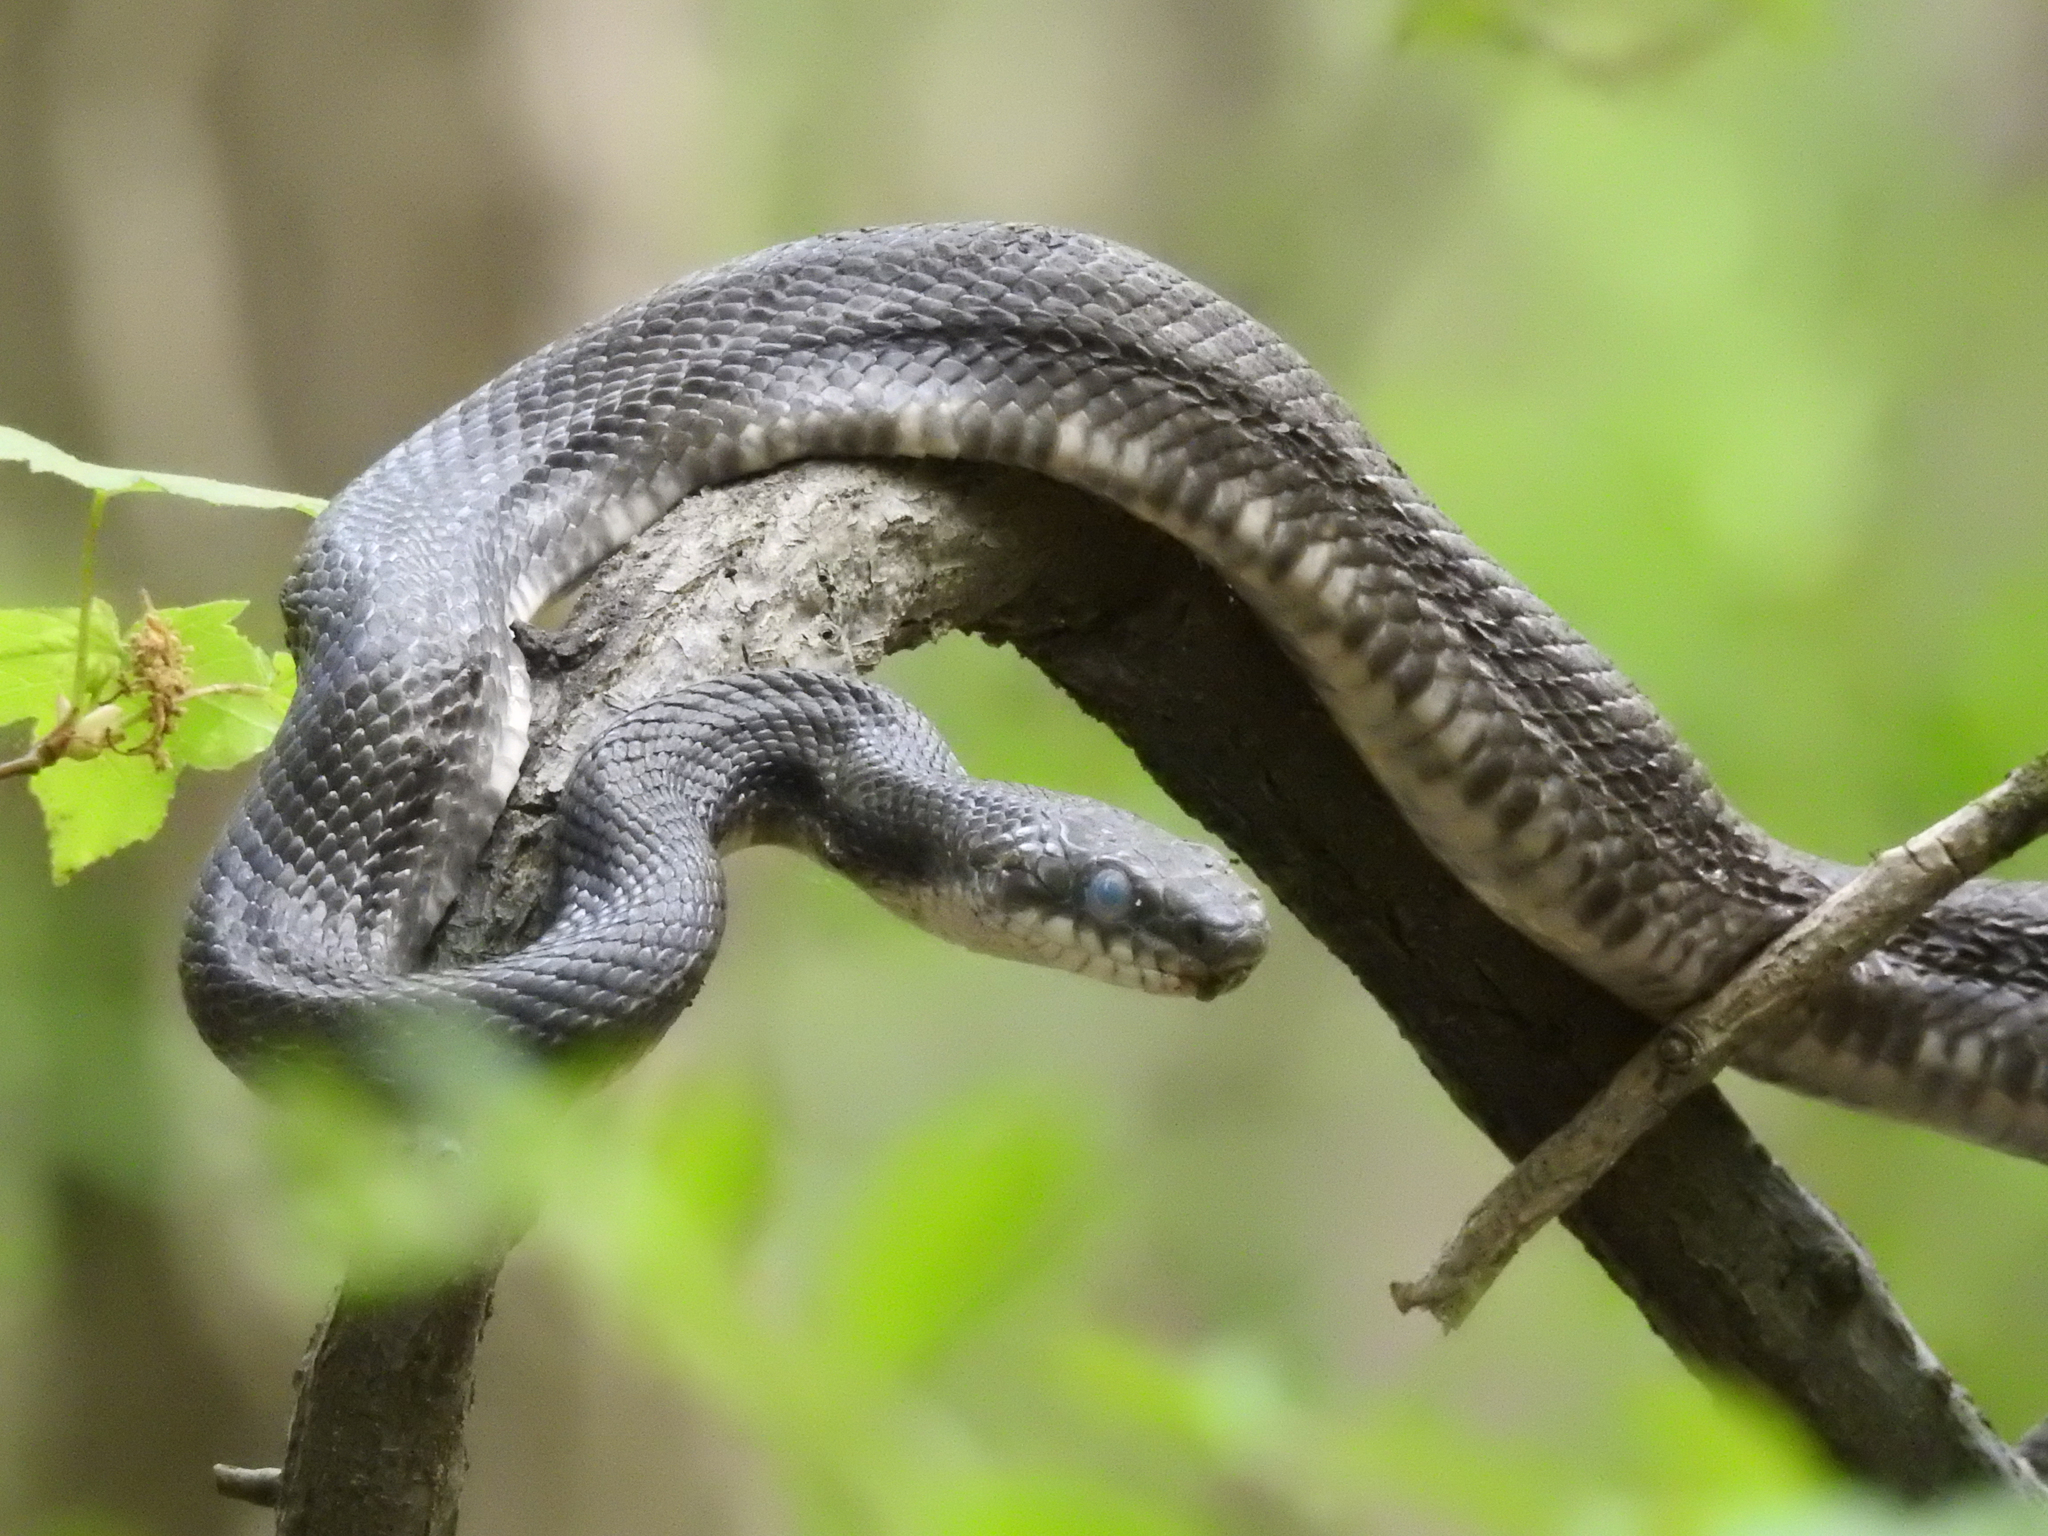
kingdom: Animalia
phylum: Chordata
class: Squamata
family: Colubridae
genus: Pantherophis
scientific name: Pantherophis alleghaniensis
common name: Eastern rat snake
